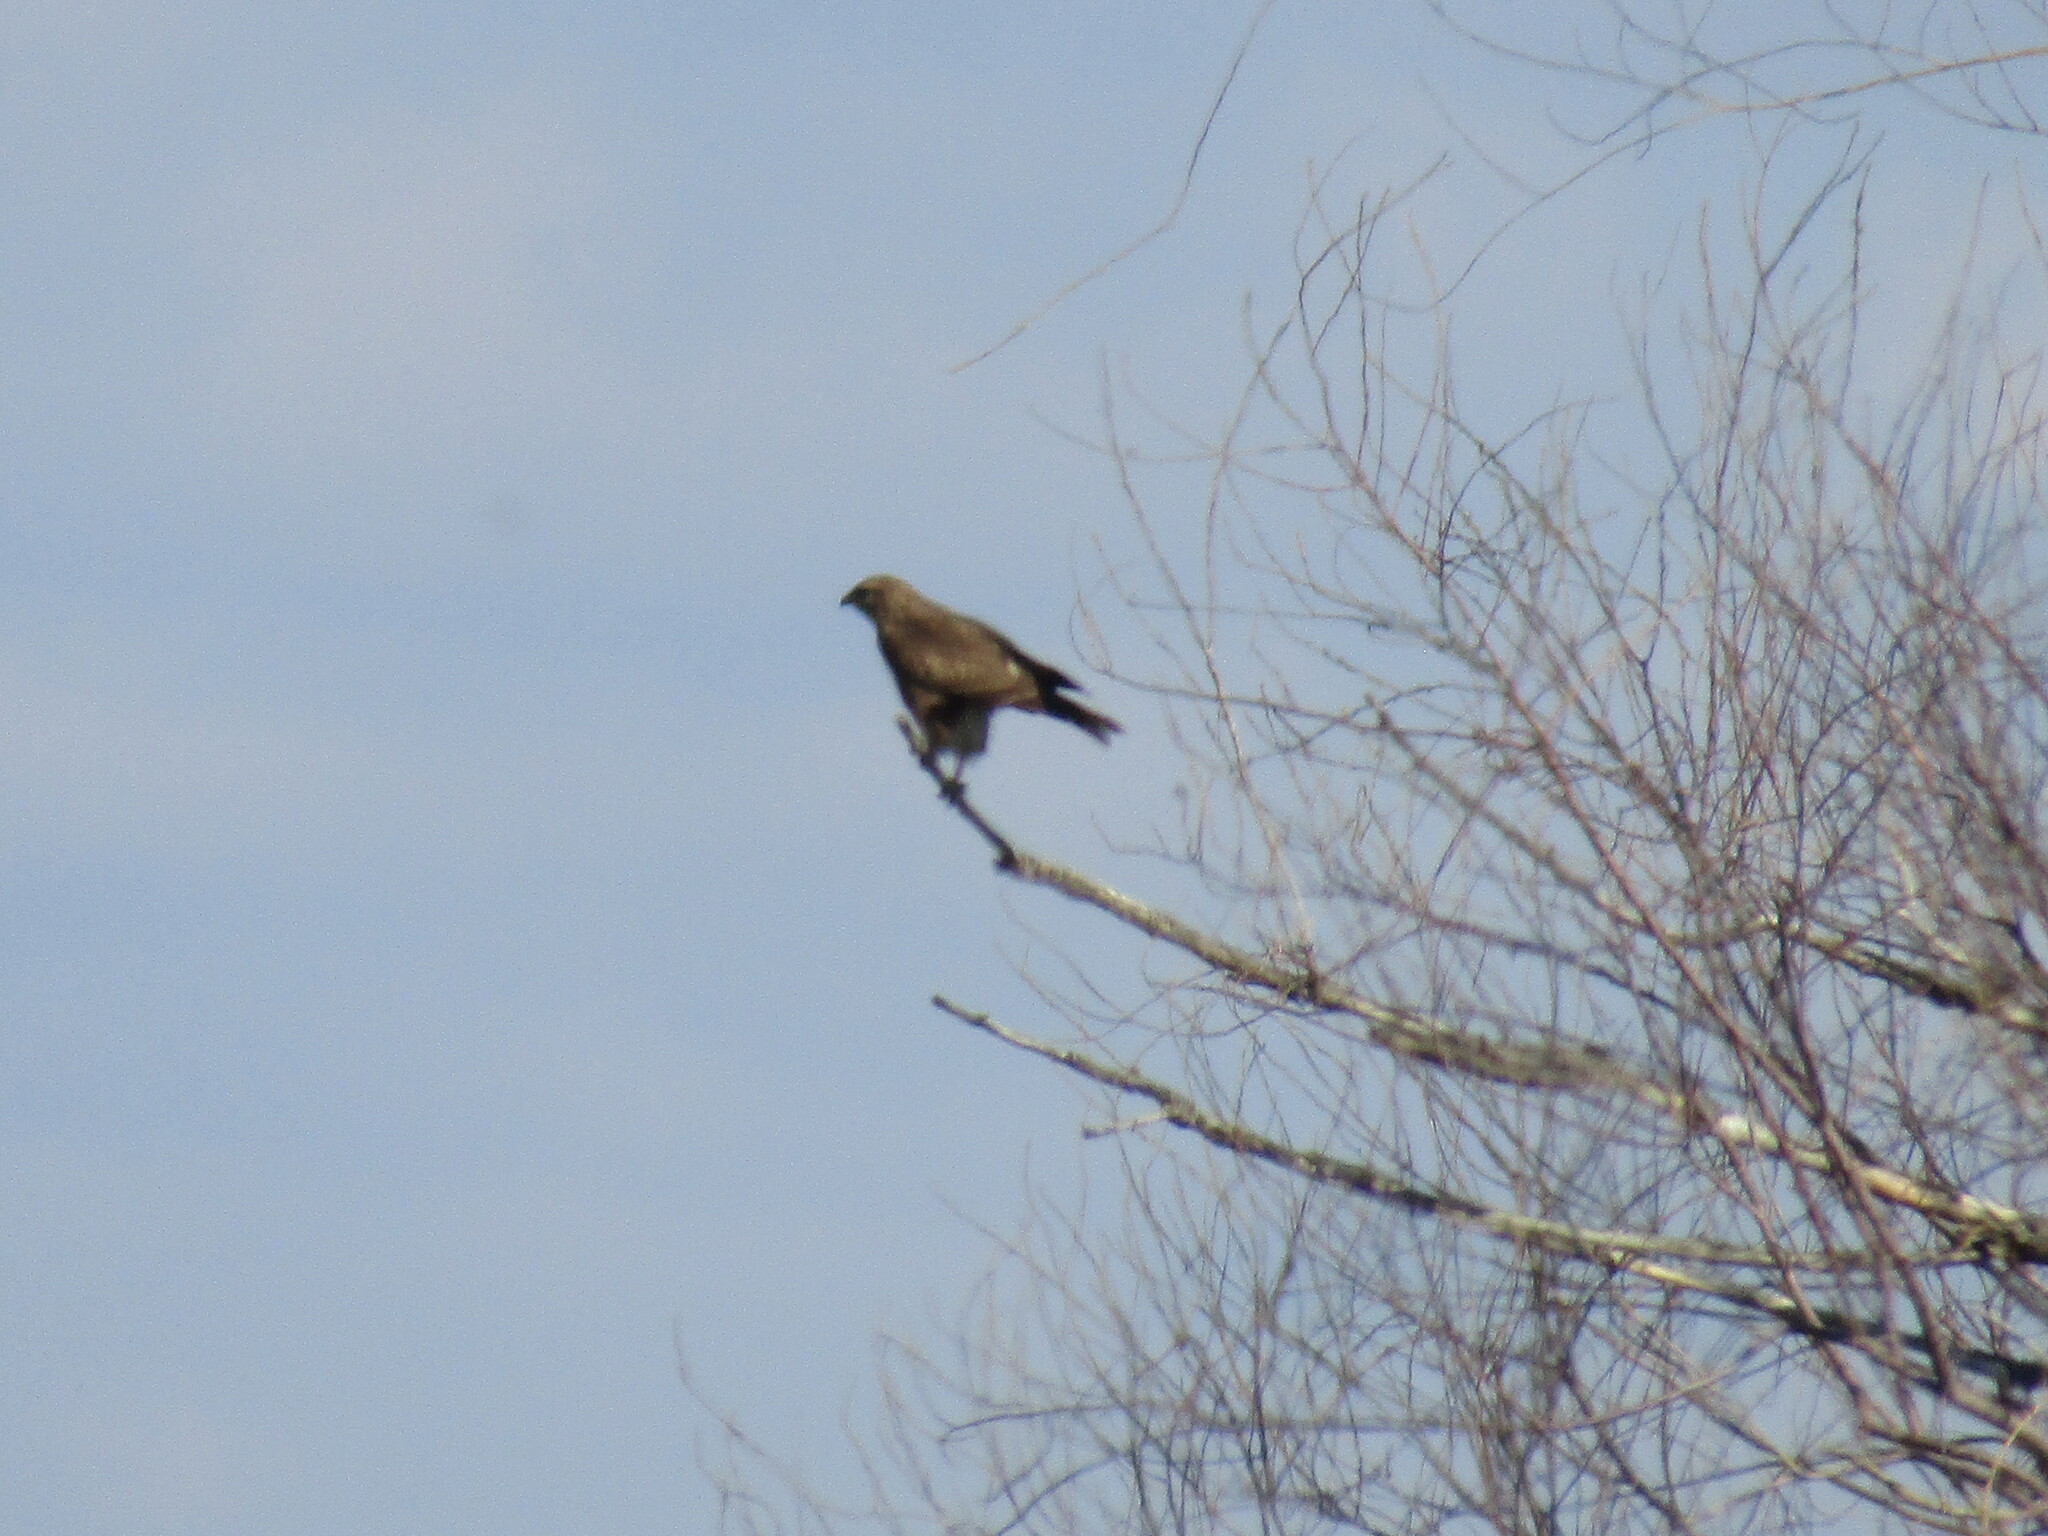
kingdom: Animalia
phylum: Chordata
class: Aves
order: Accipitriformes
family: Accipitridae
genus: Buteo
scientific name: Buteo buteo
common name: Common buzzard
